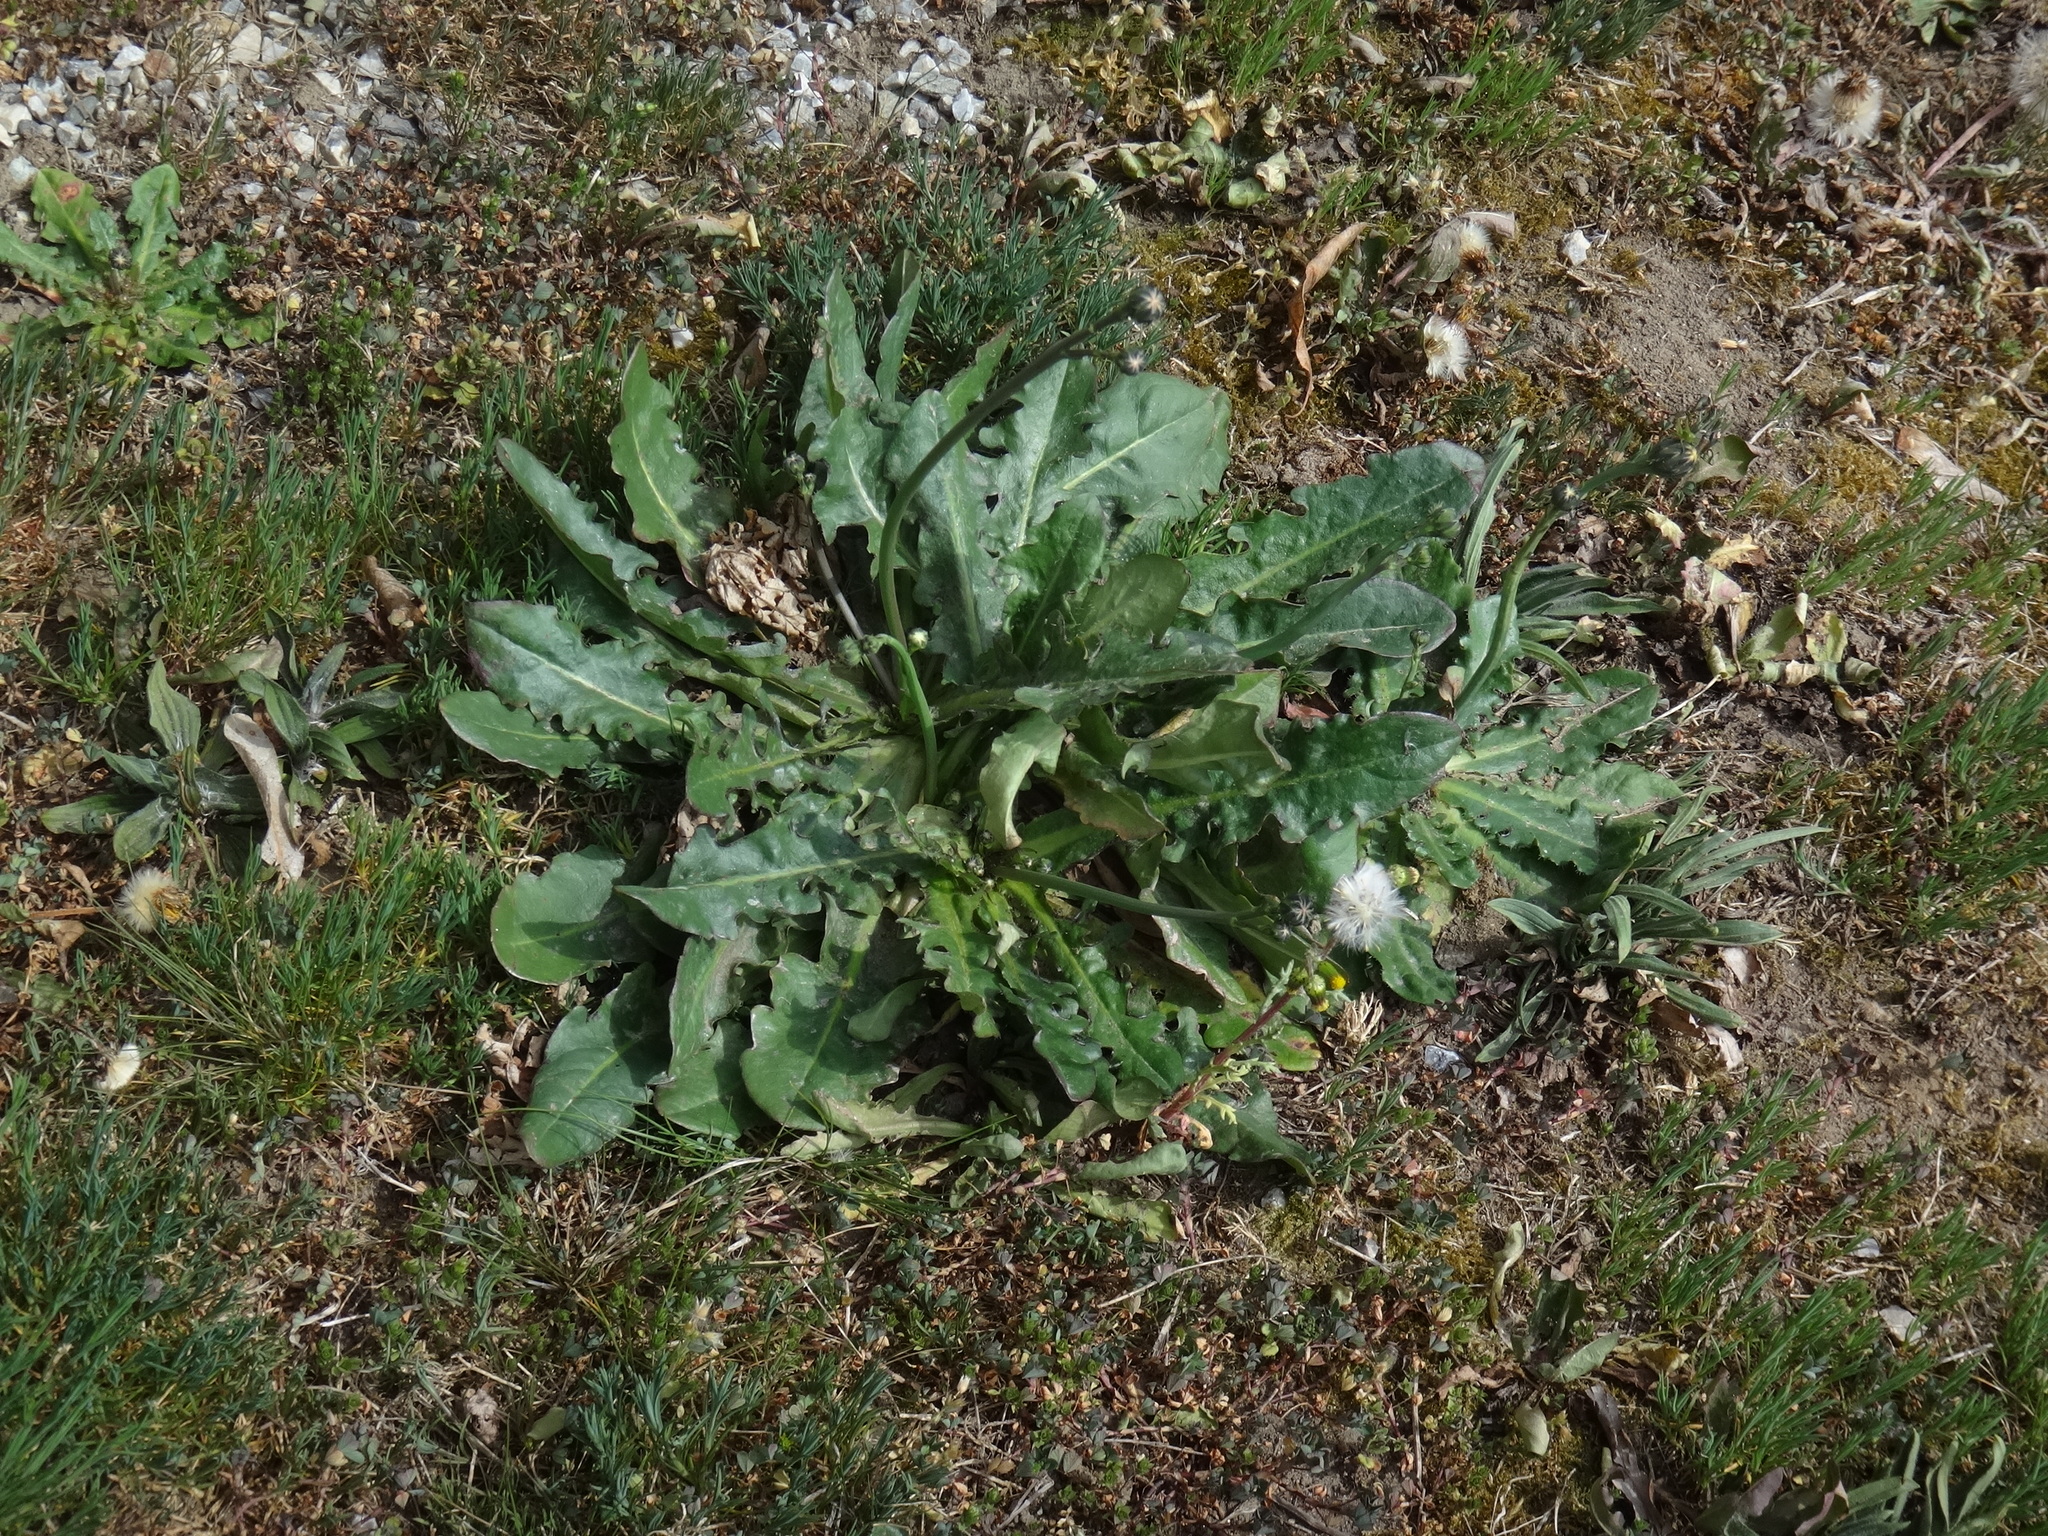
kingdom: Plantae
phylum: Tracheophyta
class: Magnoliopsida
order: Asterales
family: Asteraceae
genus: Hypochaeris
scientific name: Hypochaeris radicata
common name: Flatweed
